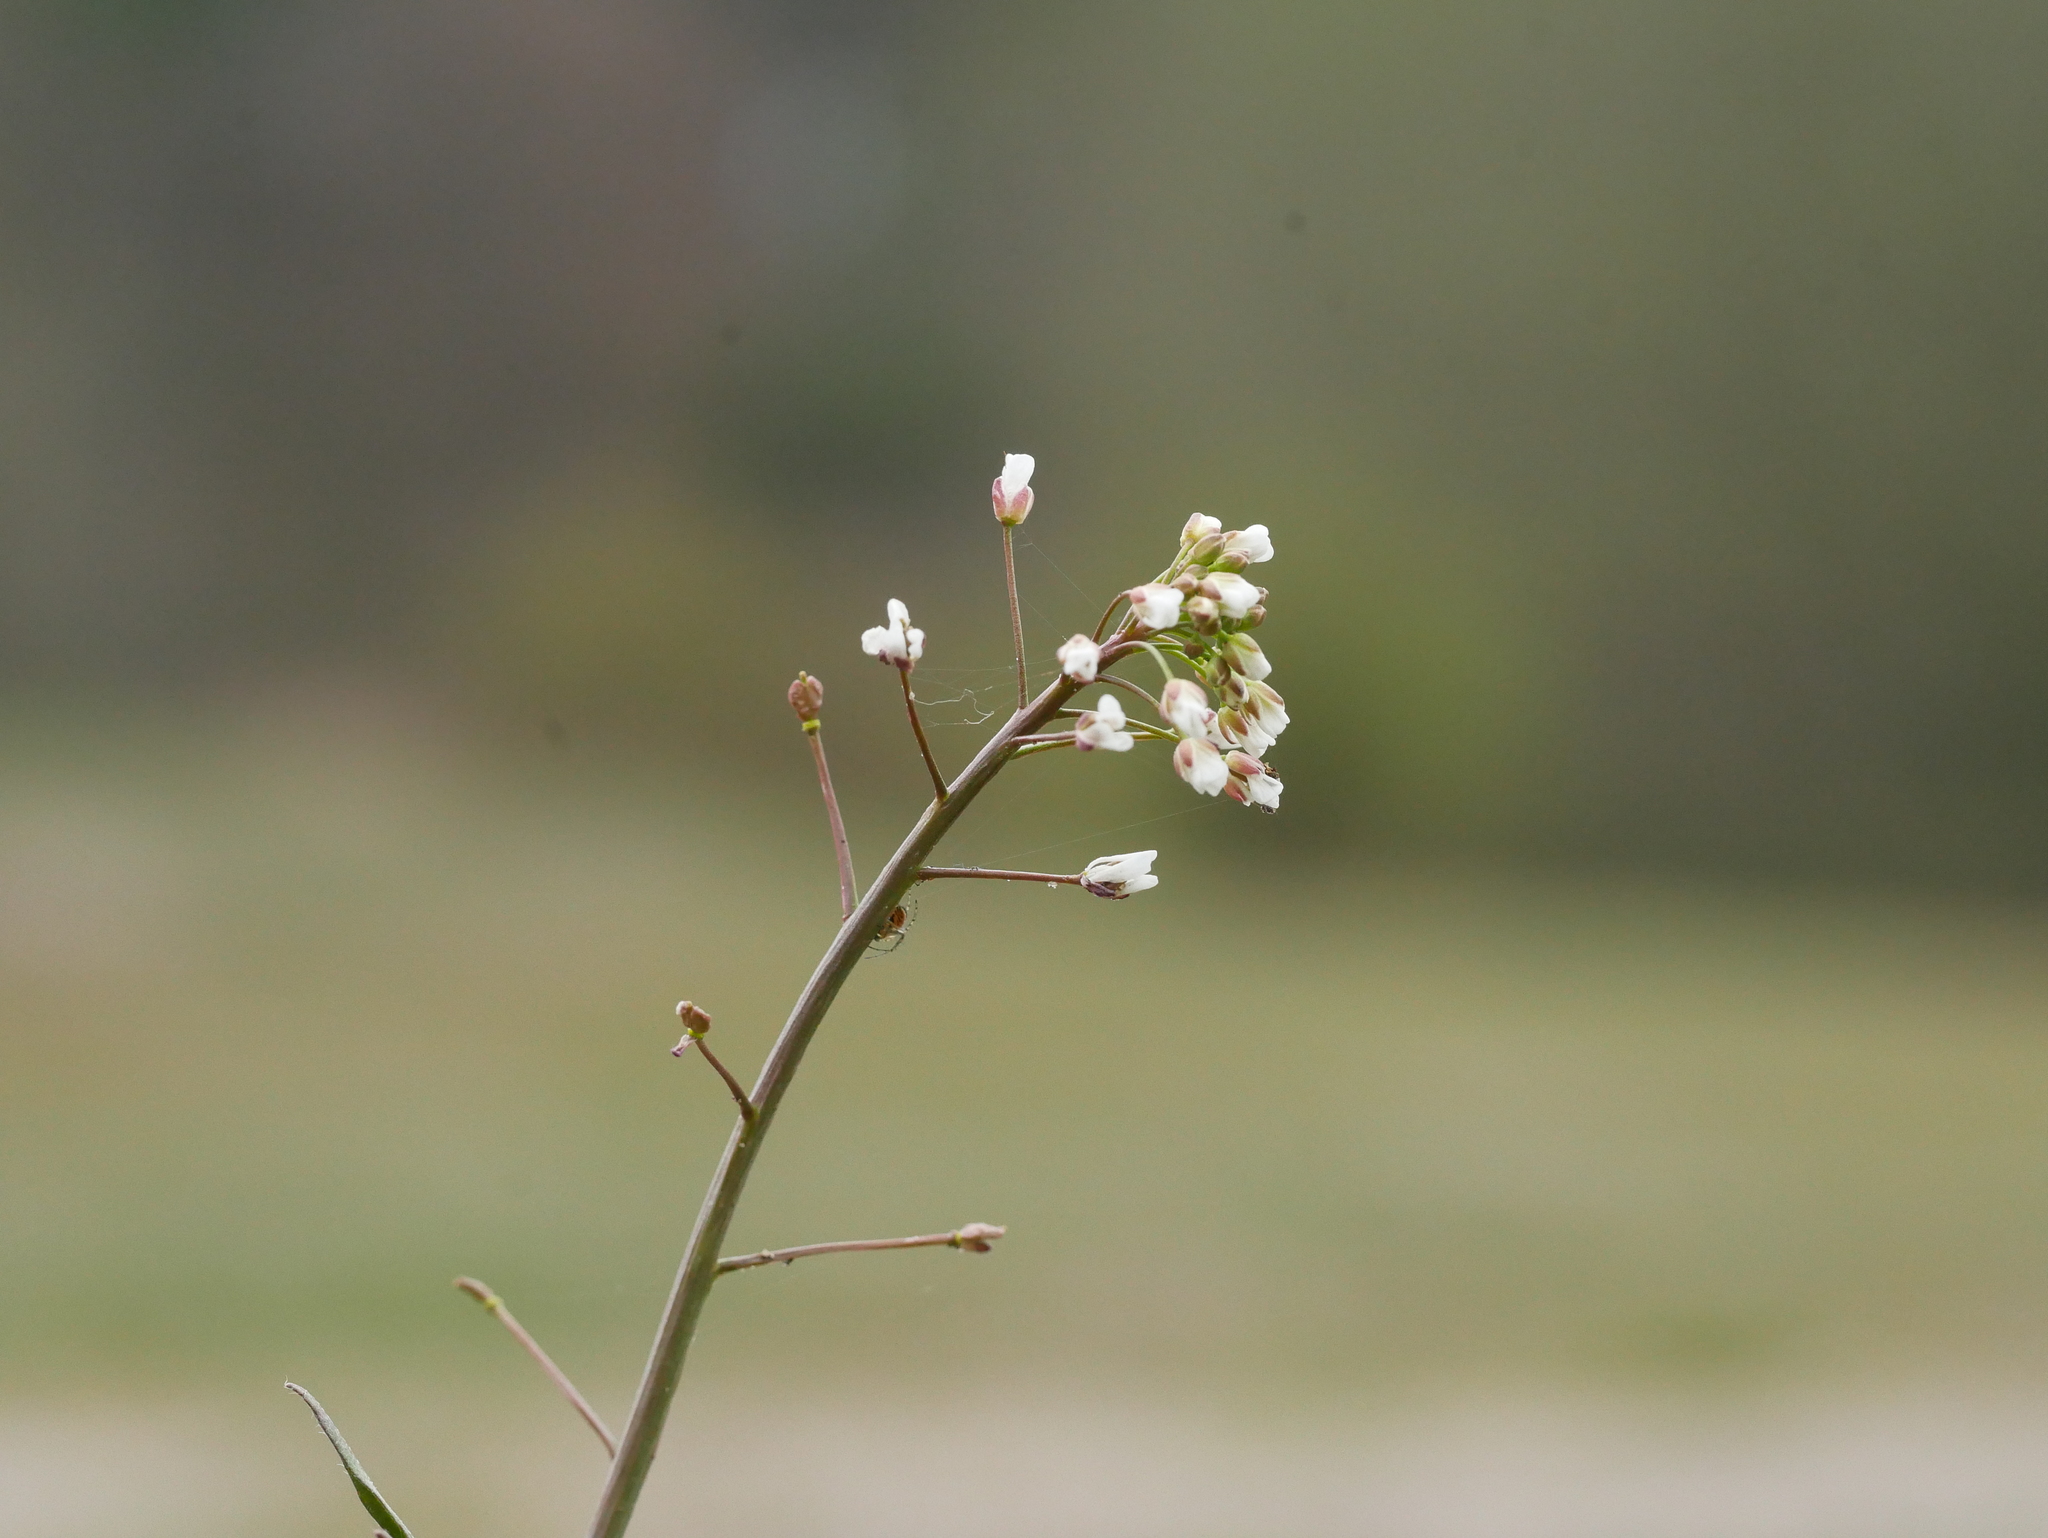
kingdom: Plantae
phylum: Tracheophyta
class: Magnoliopsida
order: Brassicales
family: Brassicaceae
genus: Capsella
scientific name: Capsella bursa-pastoris
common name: Shepherd's purse
